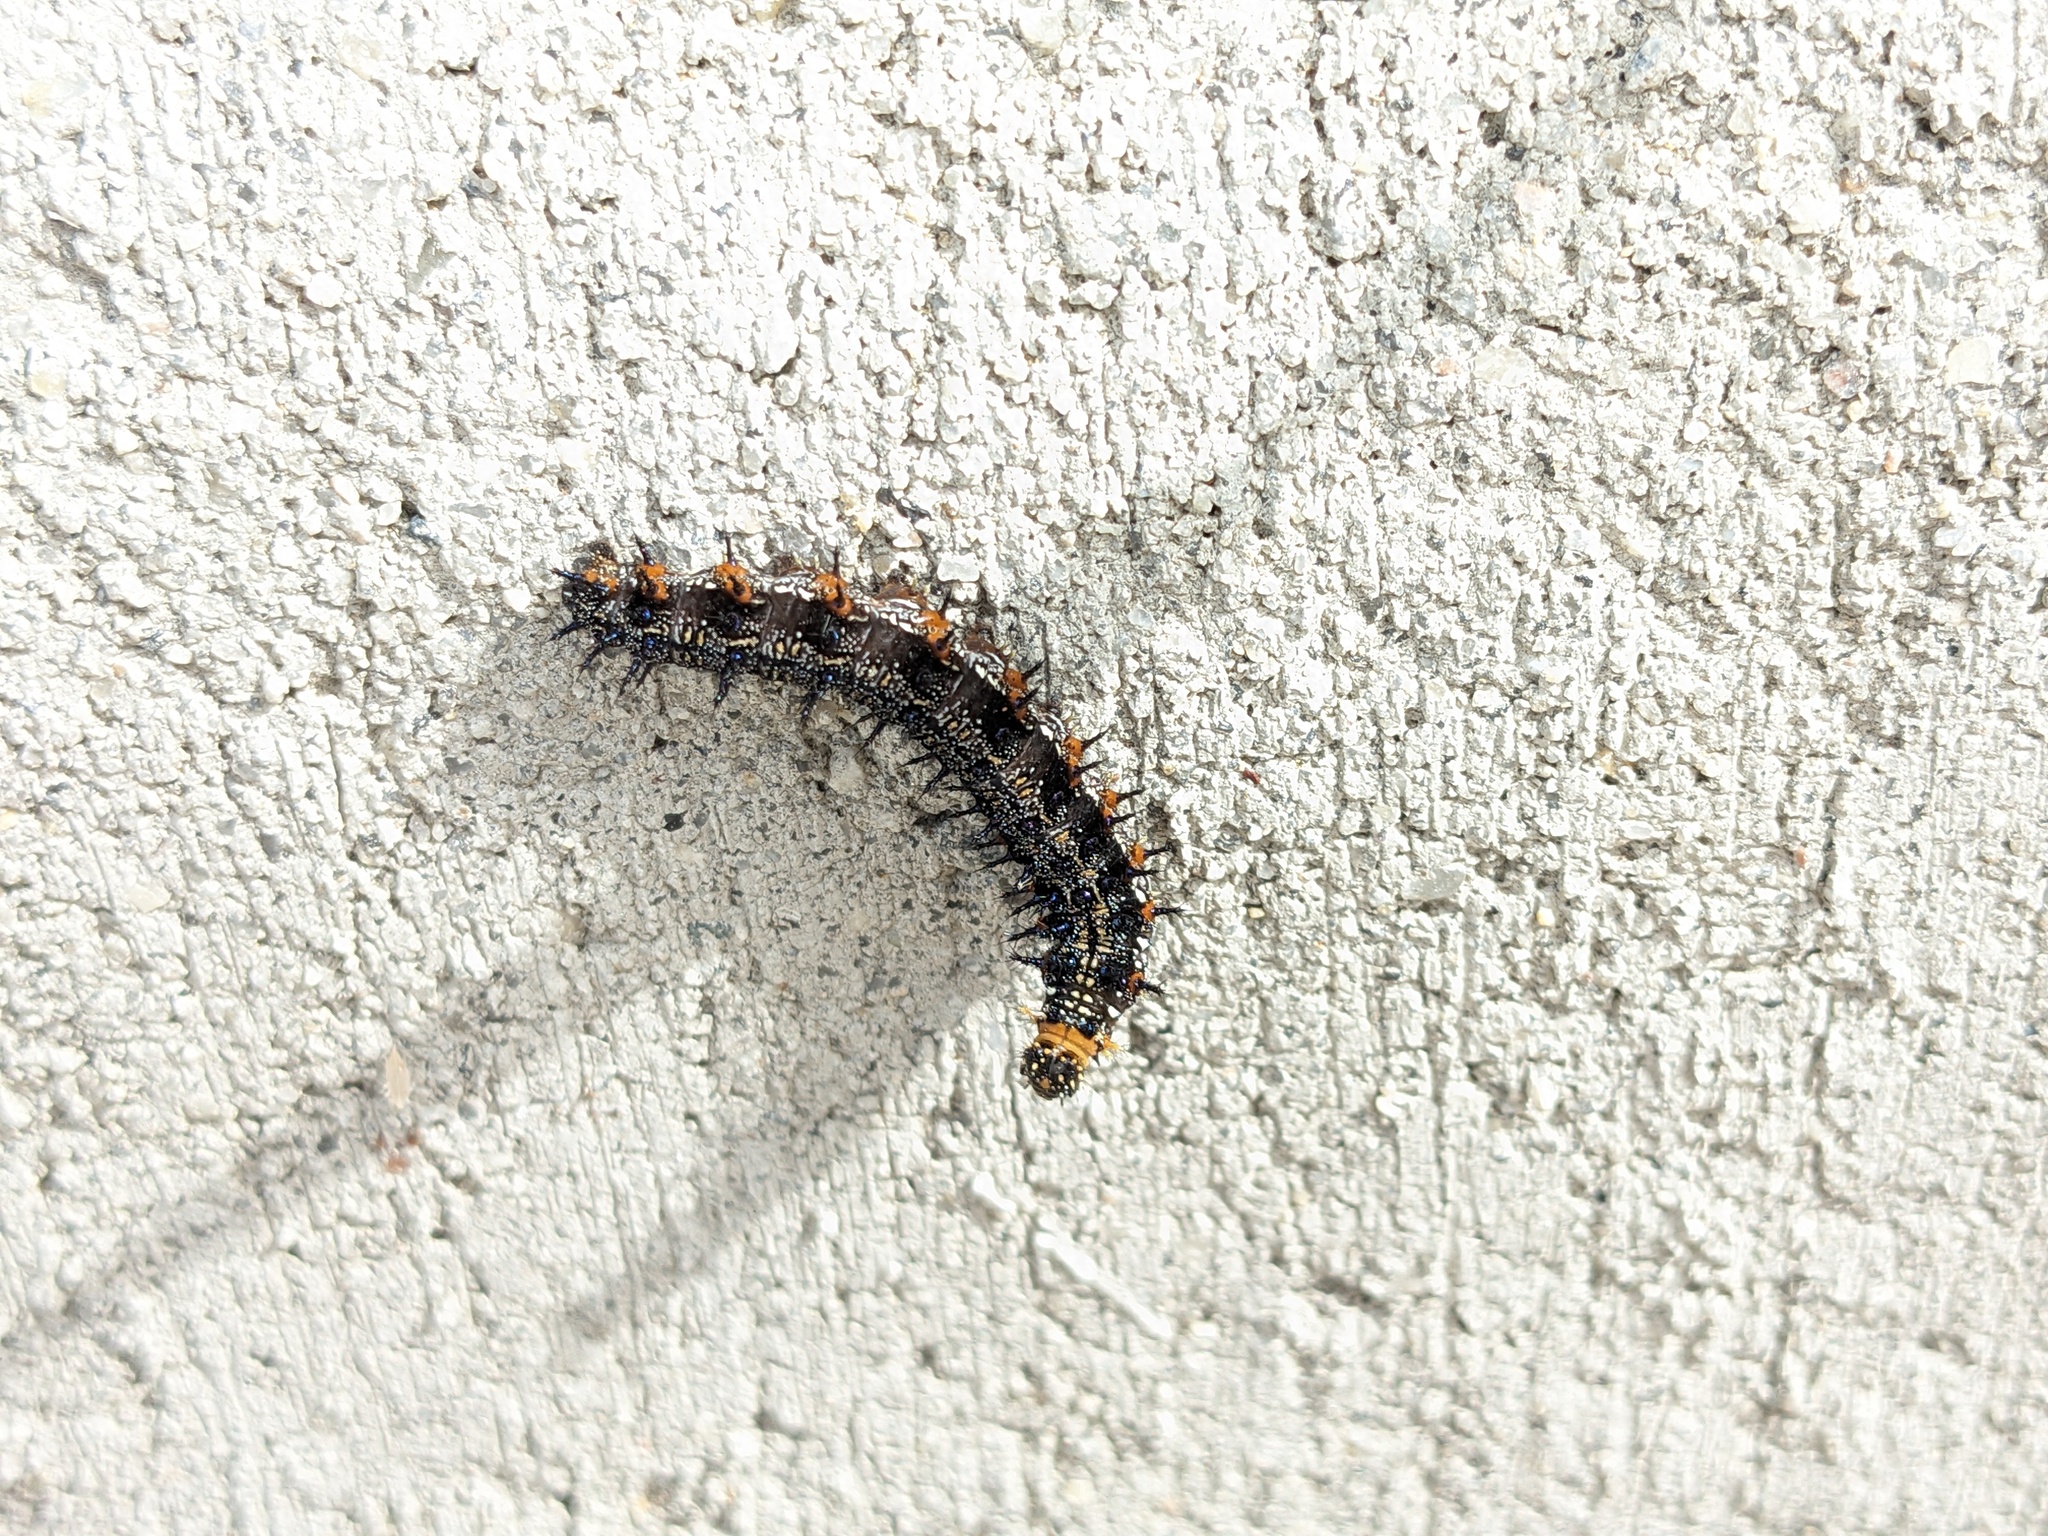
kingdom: Animalia
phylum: Arthropoda
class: Insecta
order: Lepidoptera
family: Nymphalidae
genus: Junonia
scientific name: Junonia coenia
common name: Common buckeye
